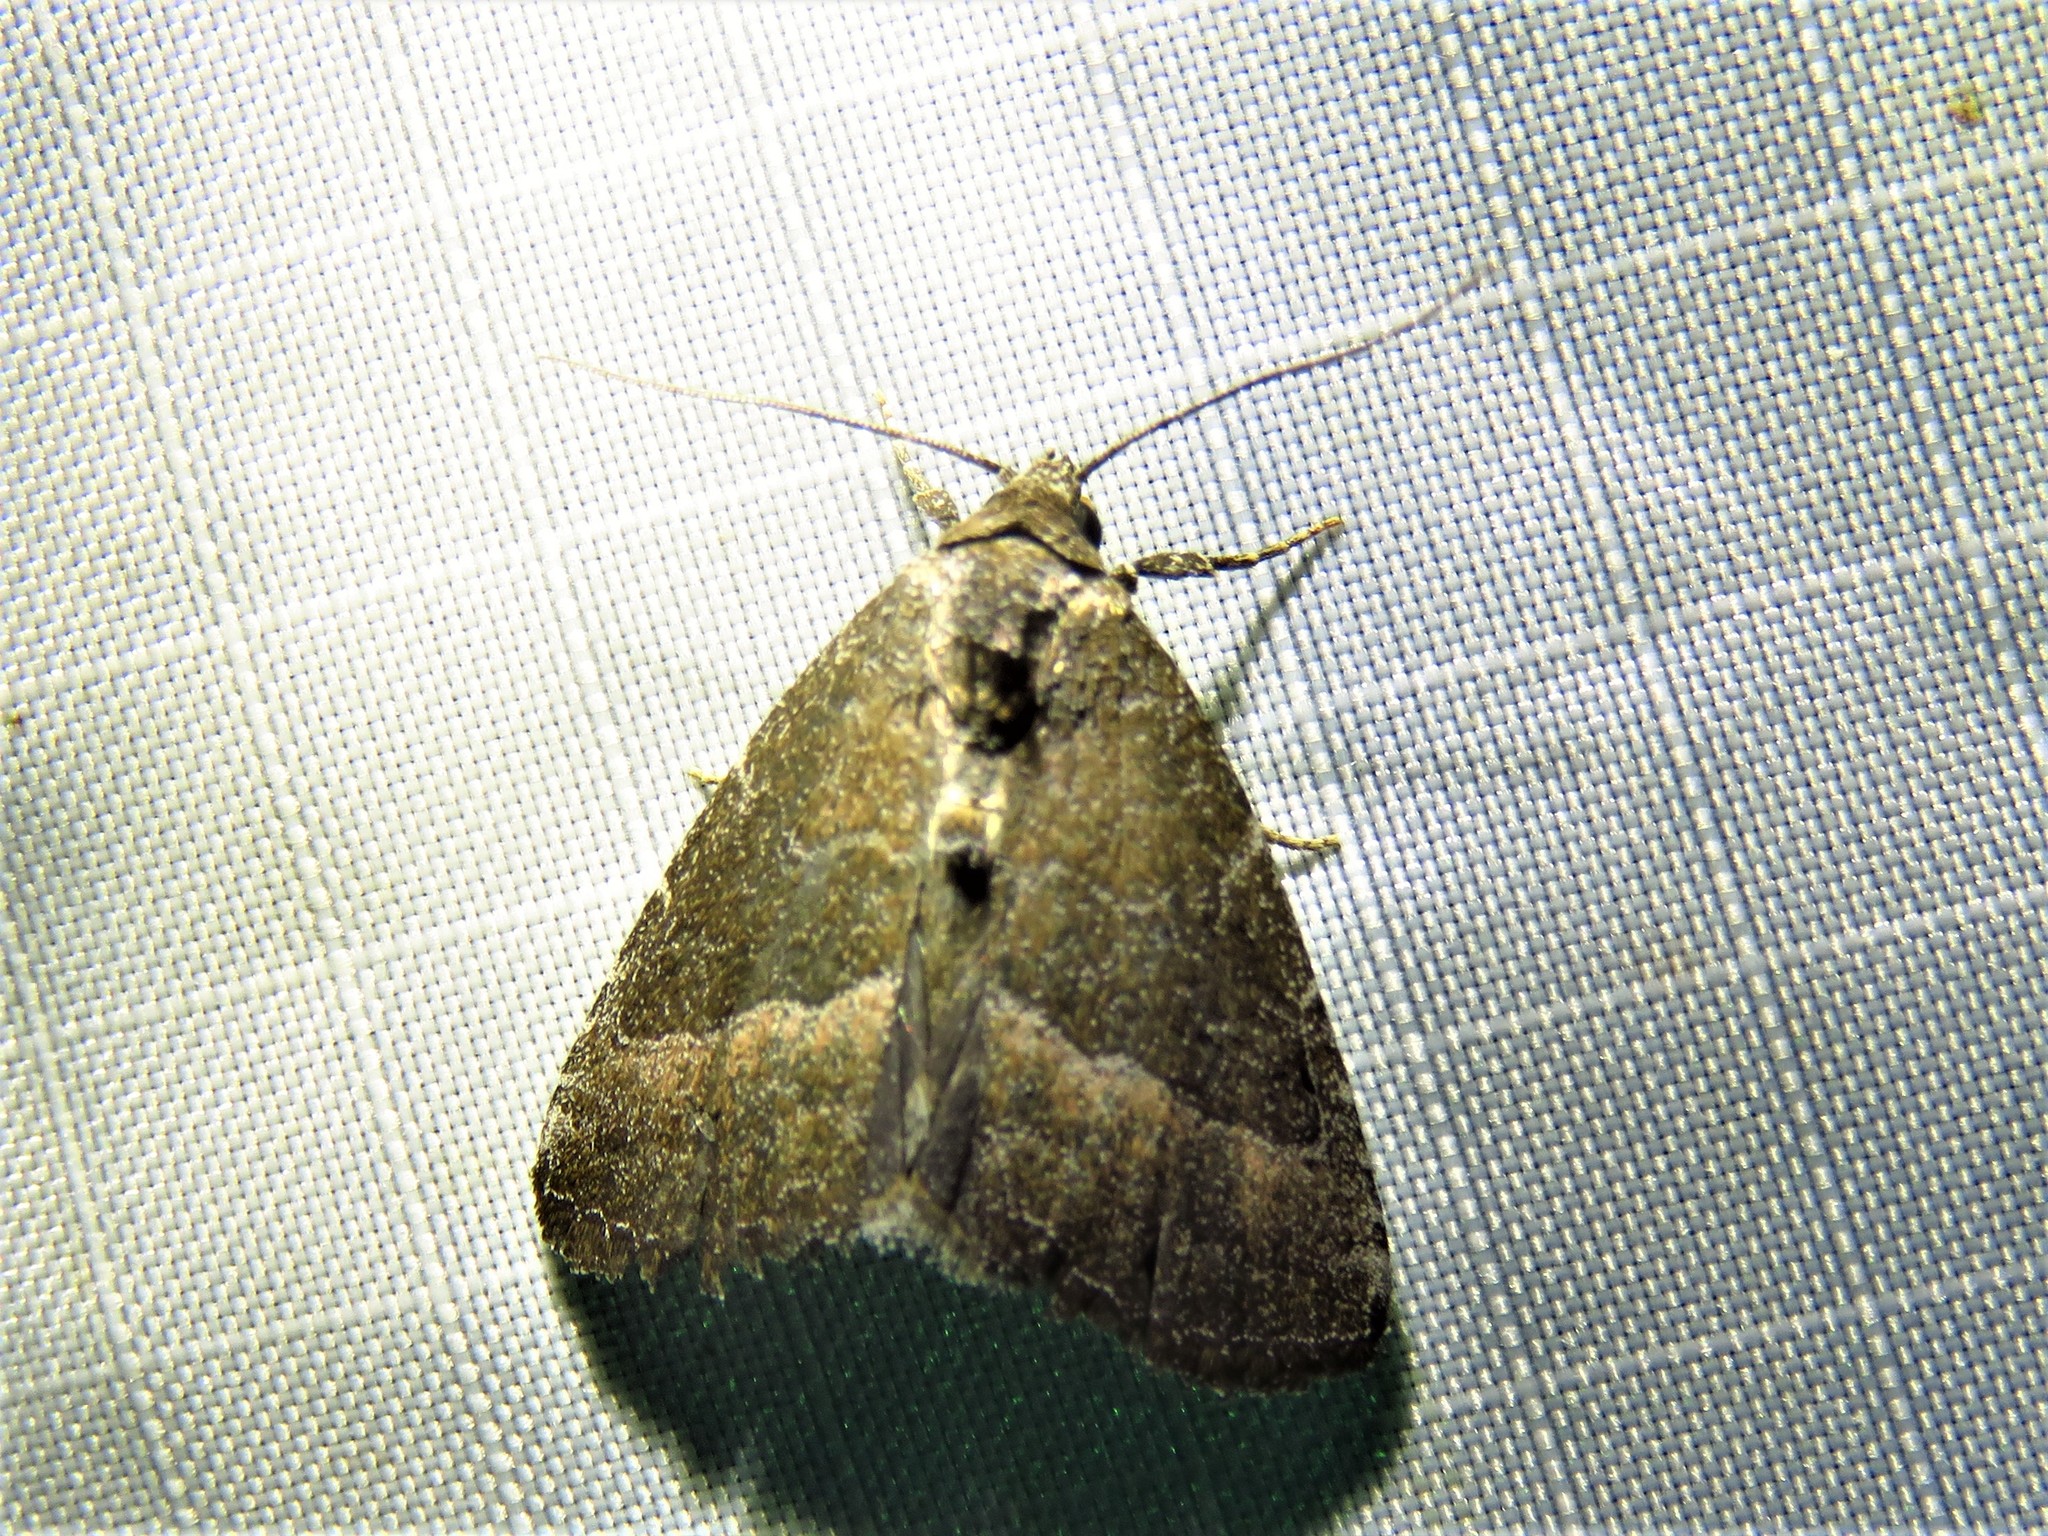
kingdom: Animalia
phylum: Arthropoda
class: Insecta
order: Lepidoptera
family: Noctuidae
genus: Ogdoconta
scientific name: Ogdoconta cinereola
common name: Common pinkband
